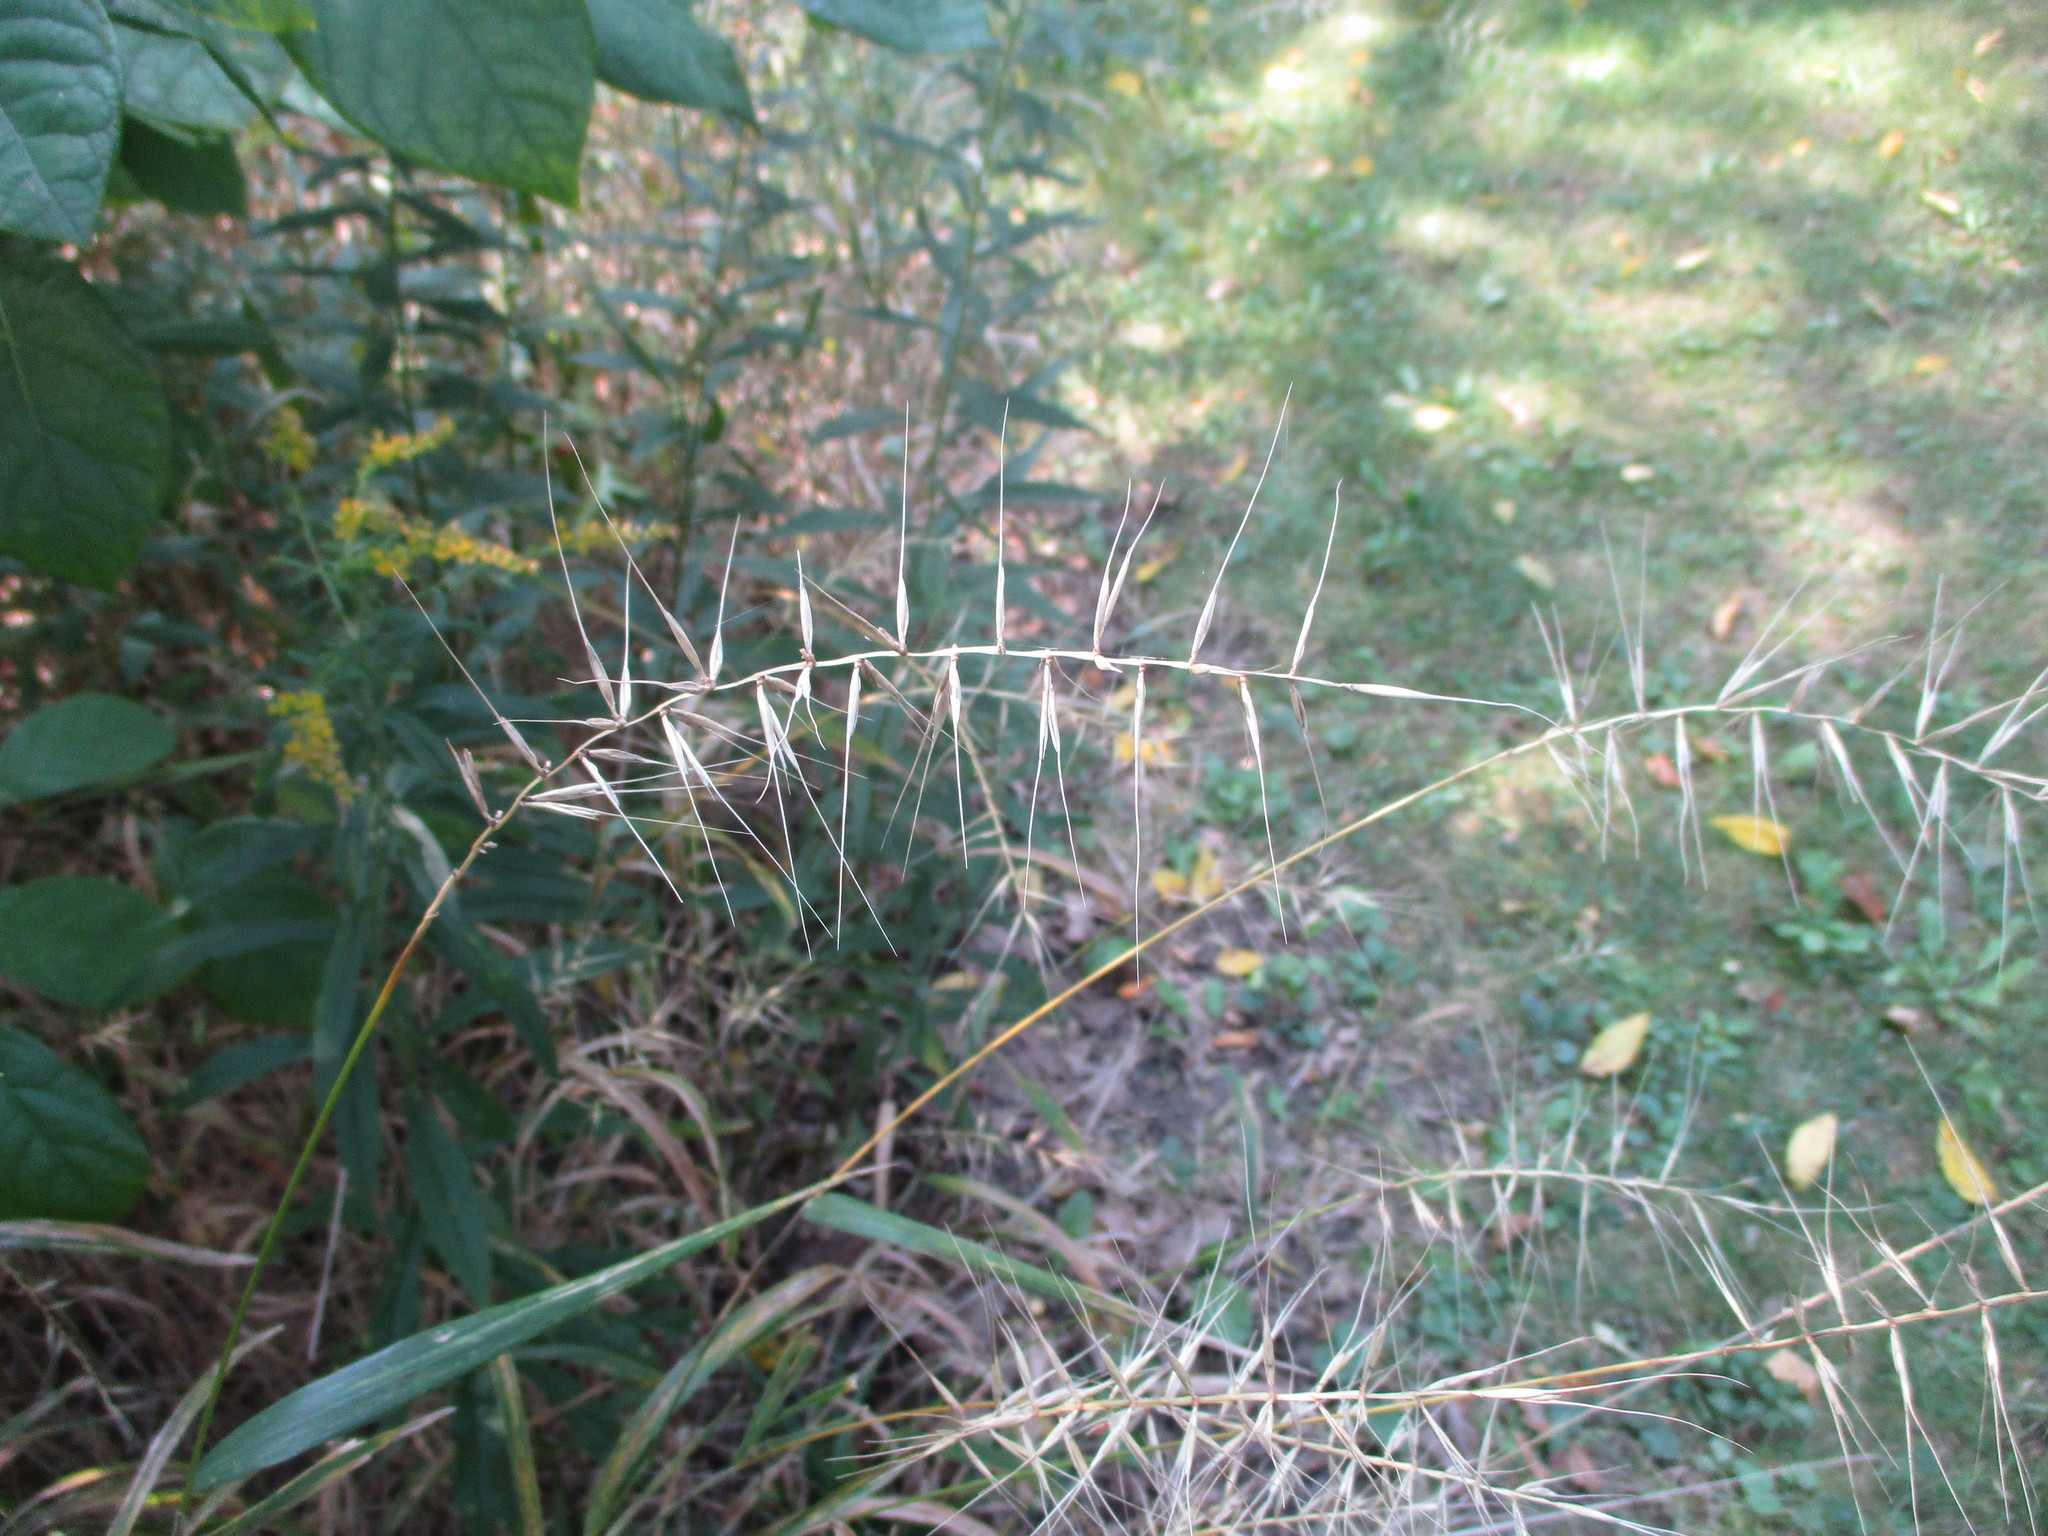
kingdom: Plantae
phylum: Tracheophyta
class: Liliopsida
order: Poales
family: Poaceae
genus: Elymus
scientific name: Elymus hystrix
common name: Bottlebrush grass
